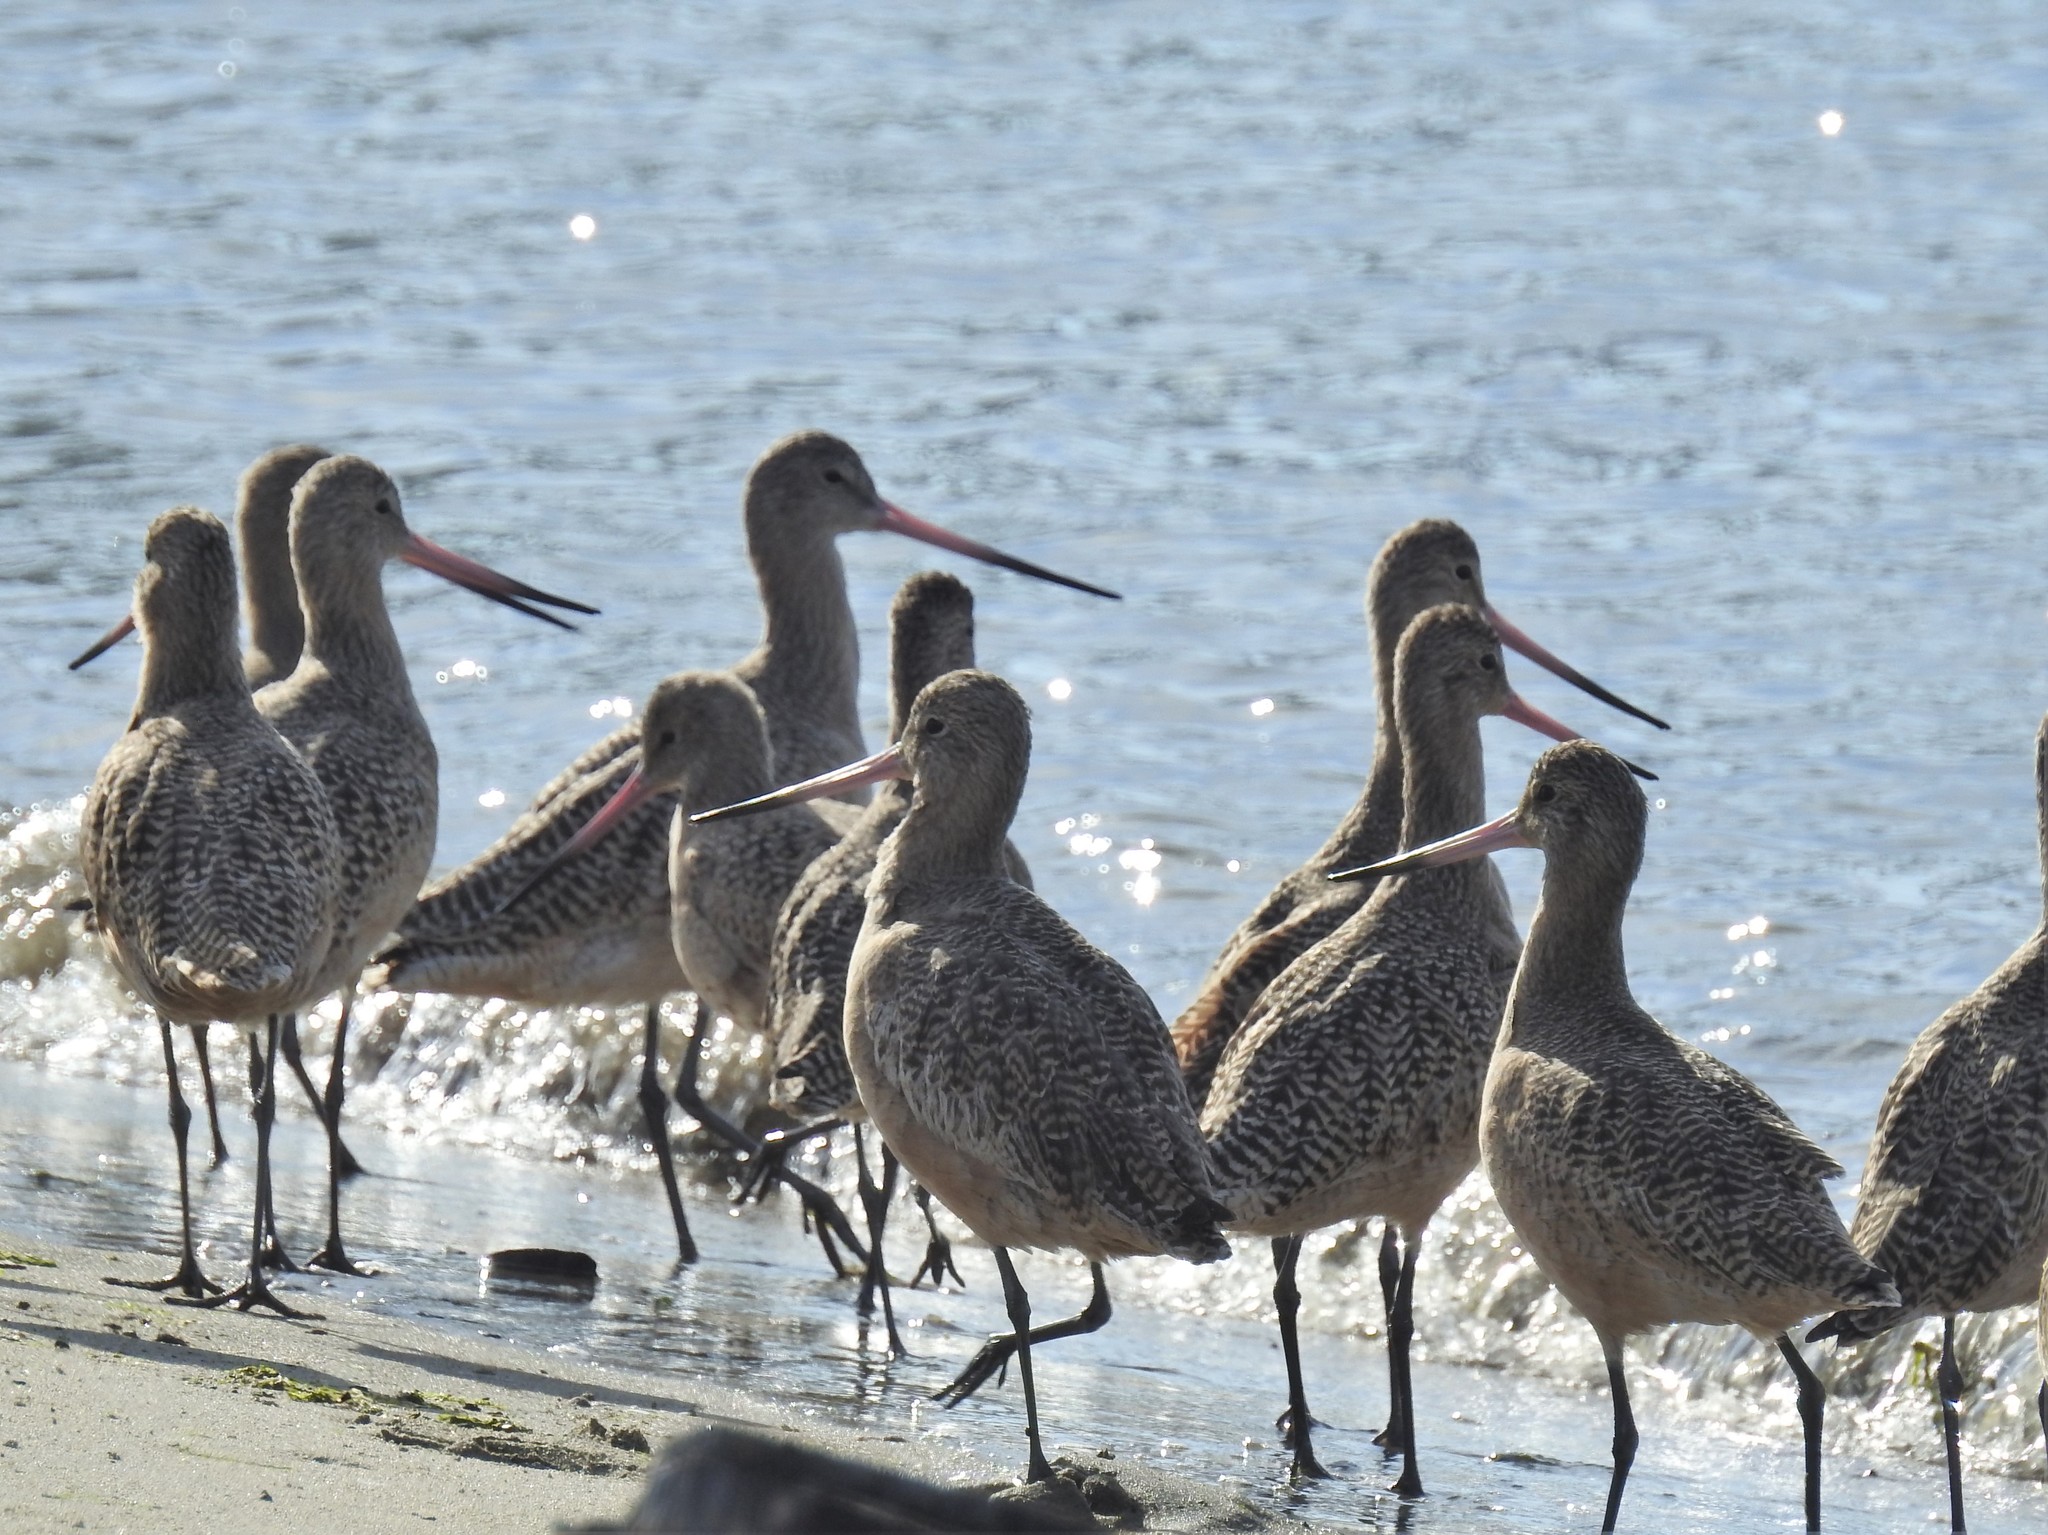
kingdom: Animalia
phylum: Chordata
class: Aves
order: Charadriiformes
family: Scolopacidae
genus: Limosa
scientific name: Limosa fedoa
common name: Marbled godwit
